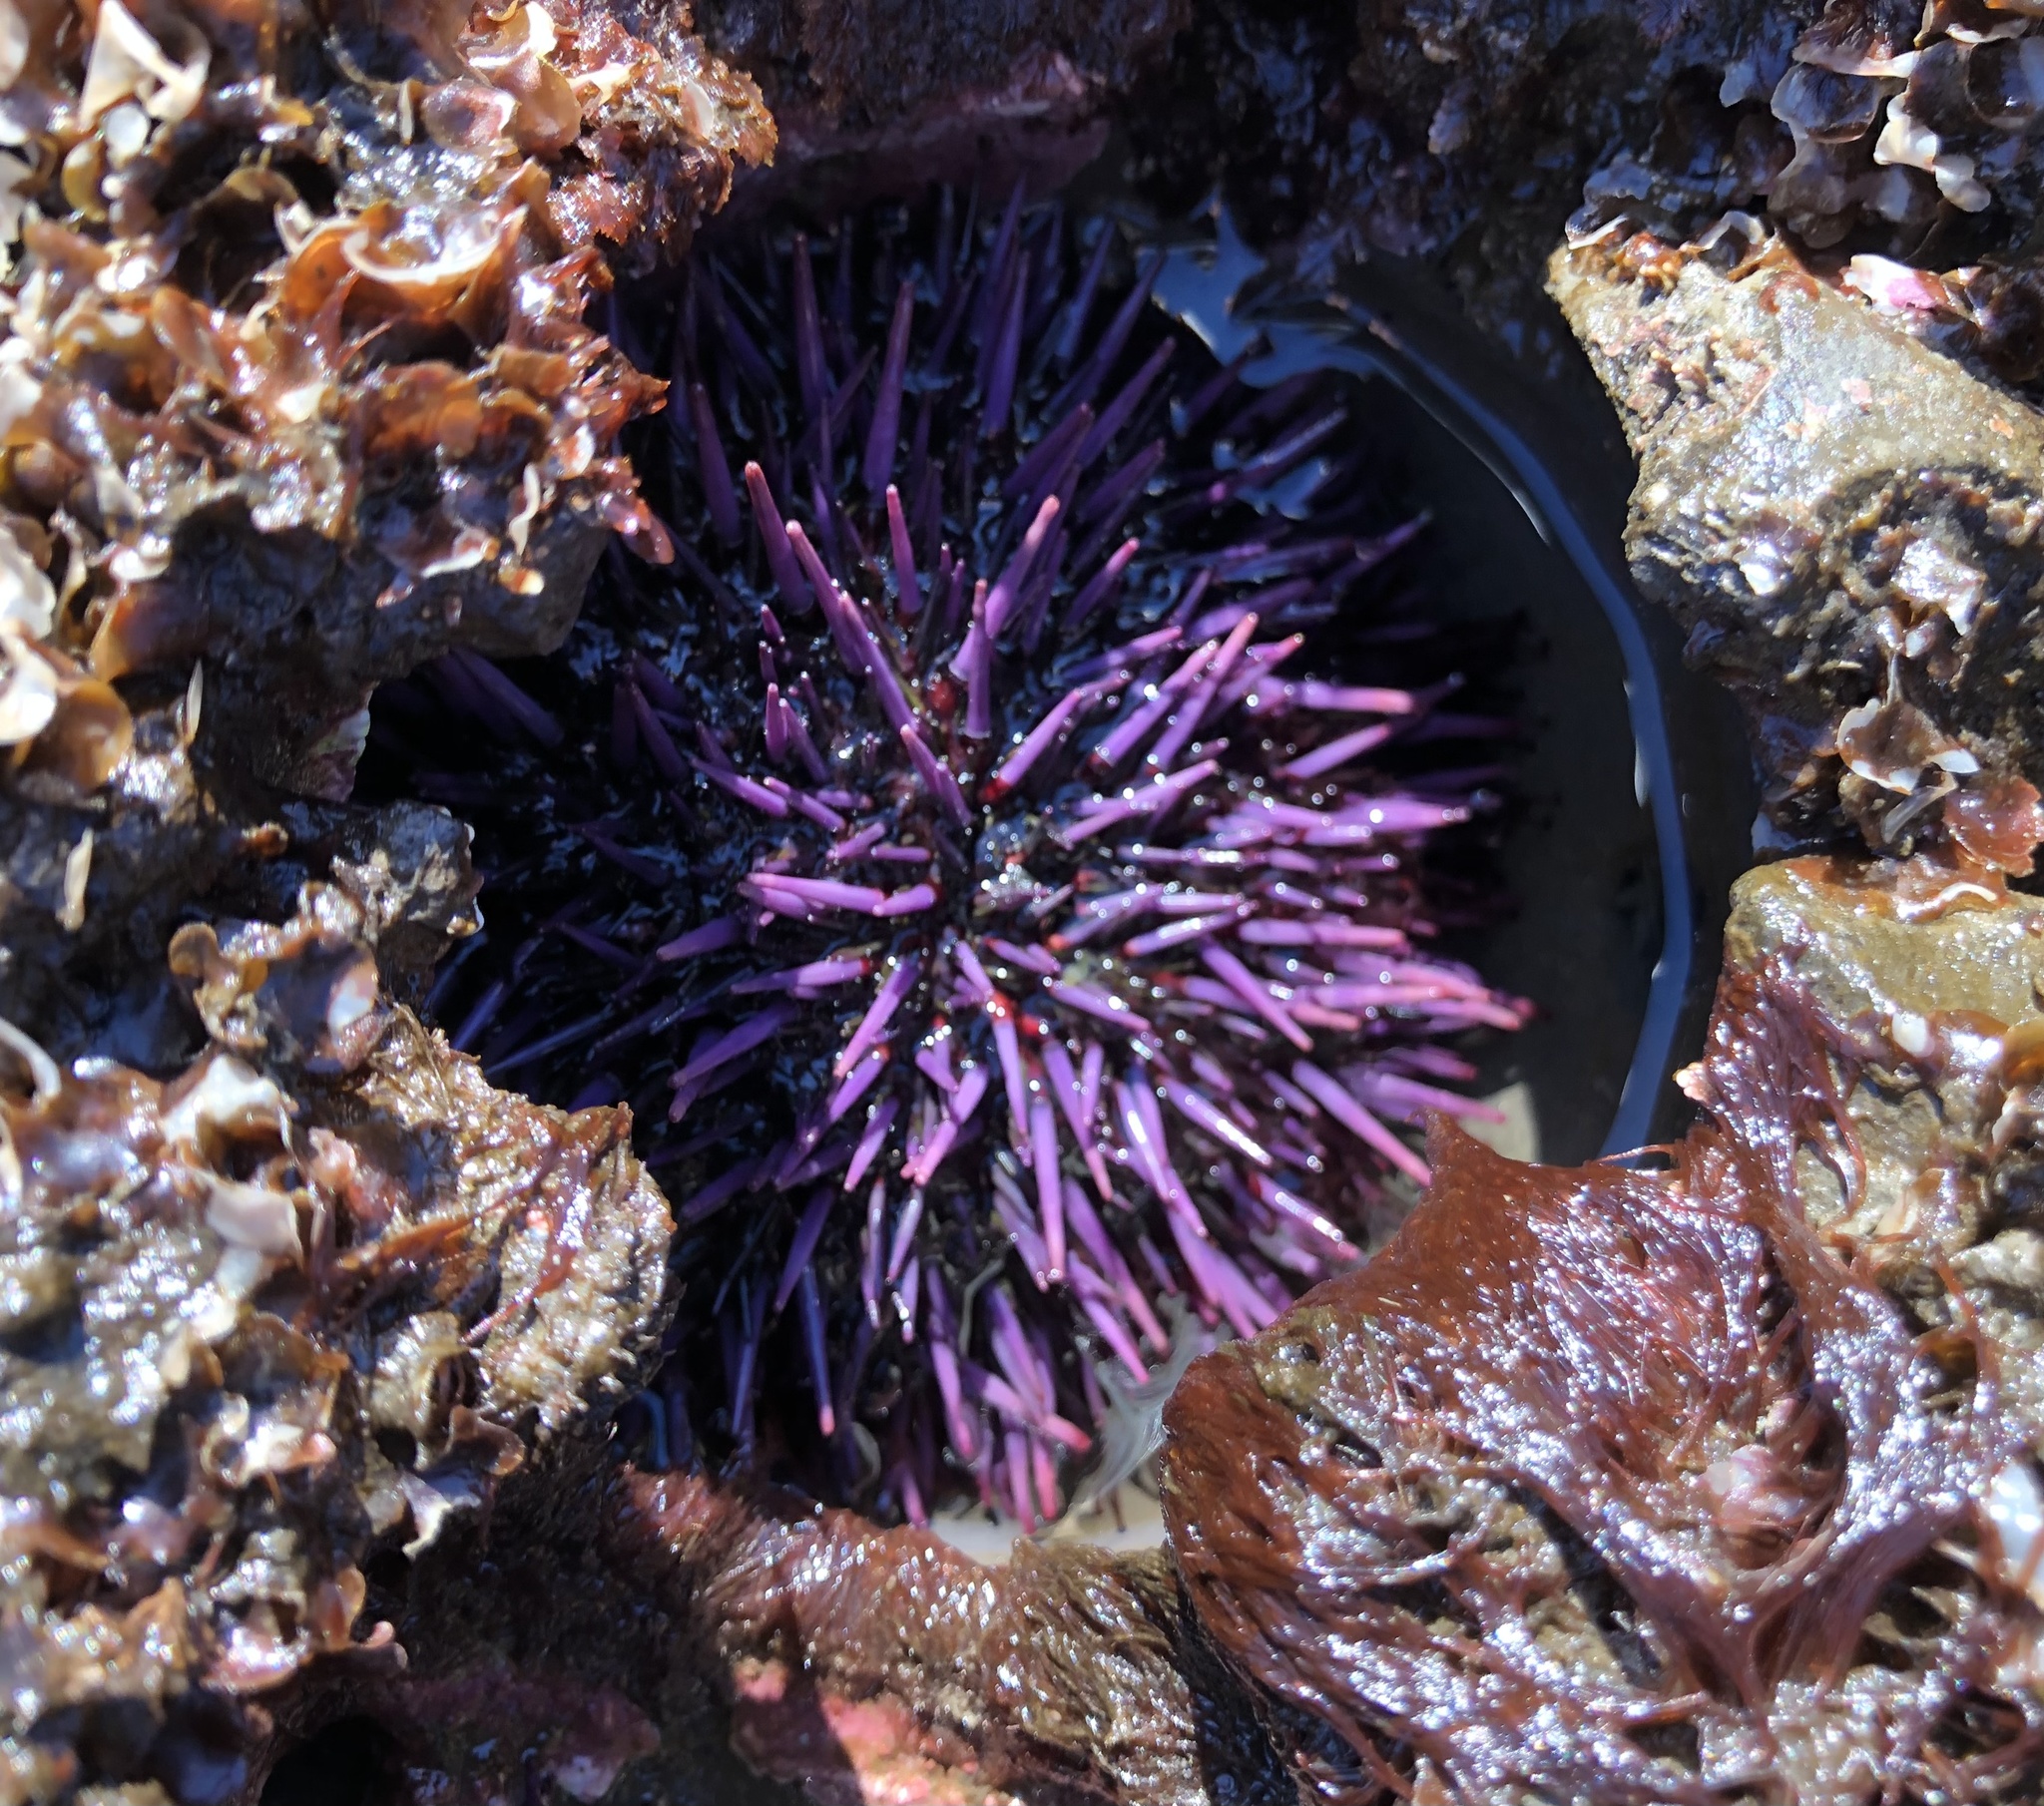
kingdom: Animalia
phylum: Echinodermata
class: Echinoidea
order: Camarodonta
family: Strongylocentrotidae
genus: Strongylocentrotus
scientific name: Strongylocentrotus purpuratus
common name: Purple sea urchin
